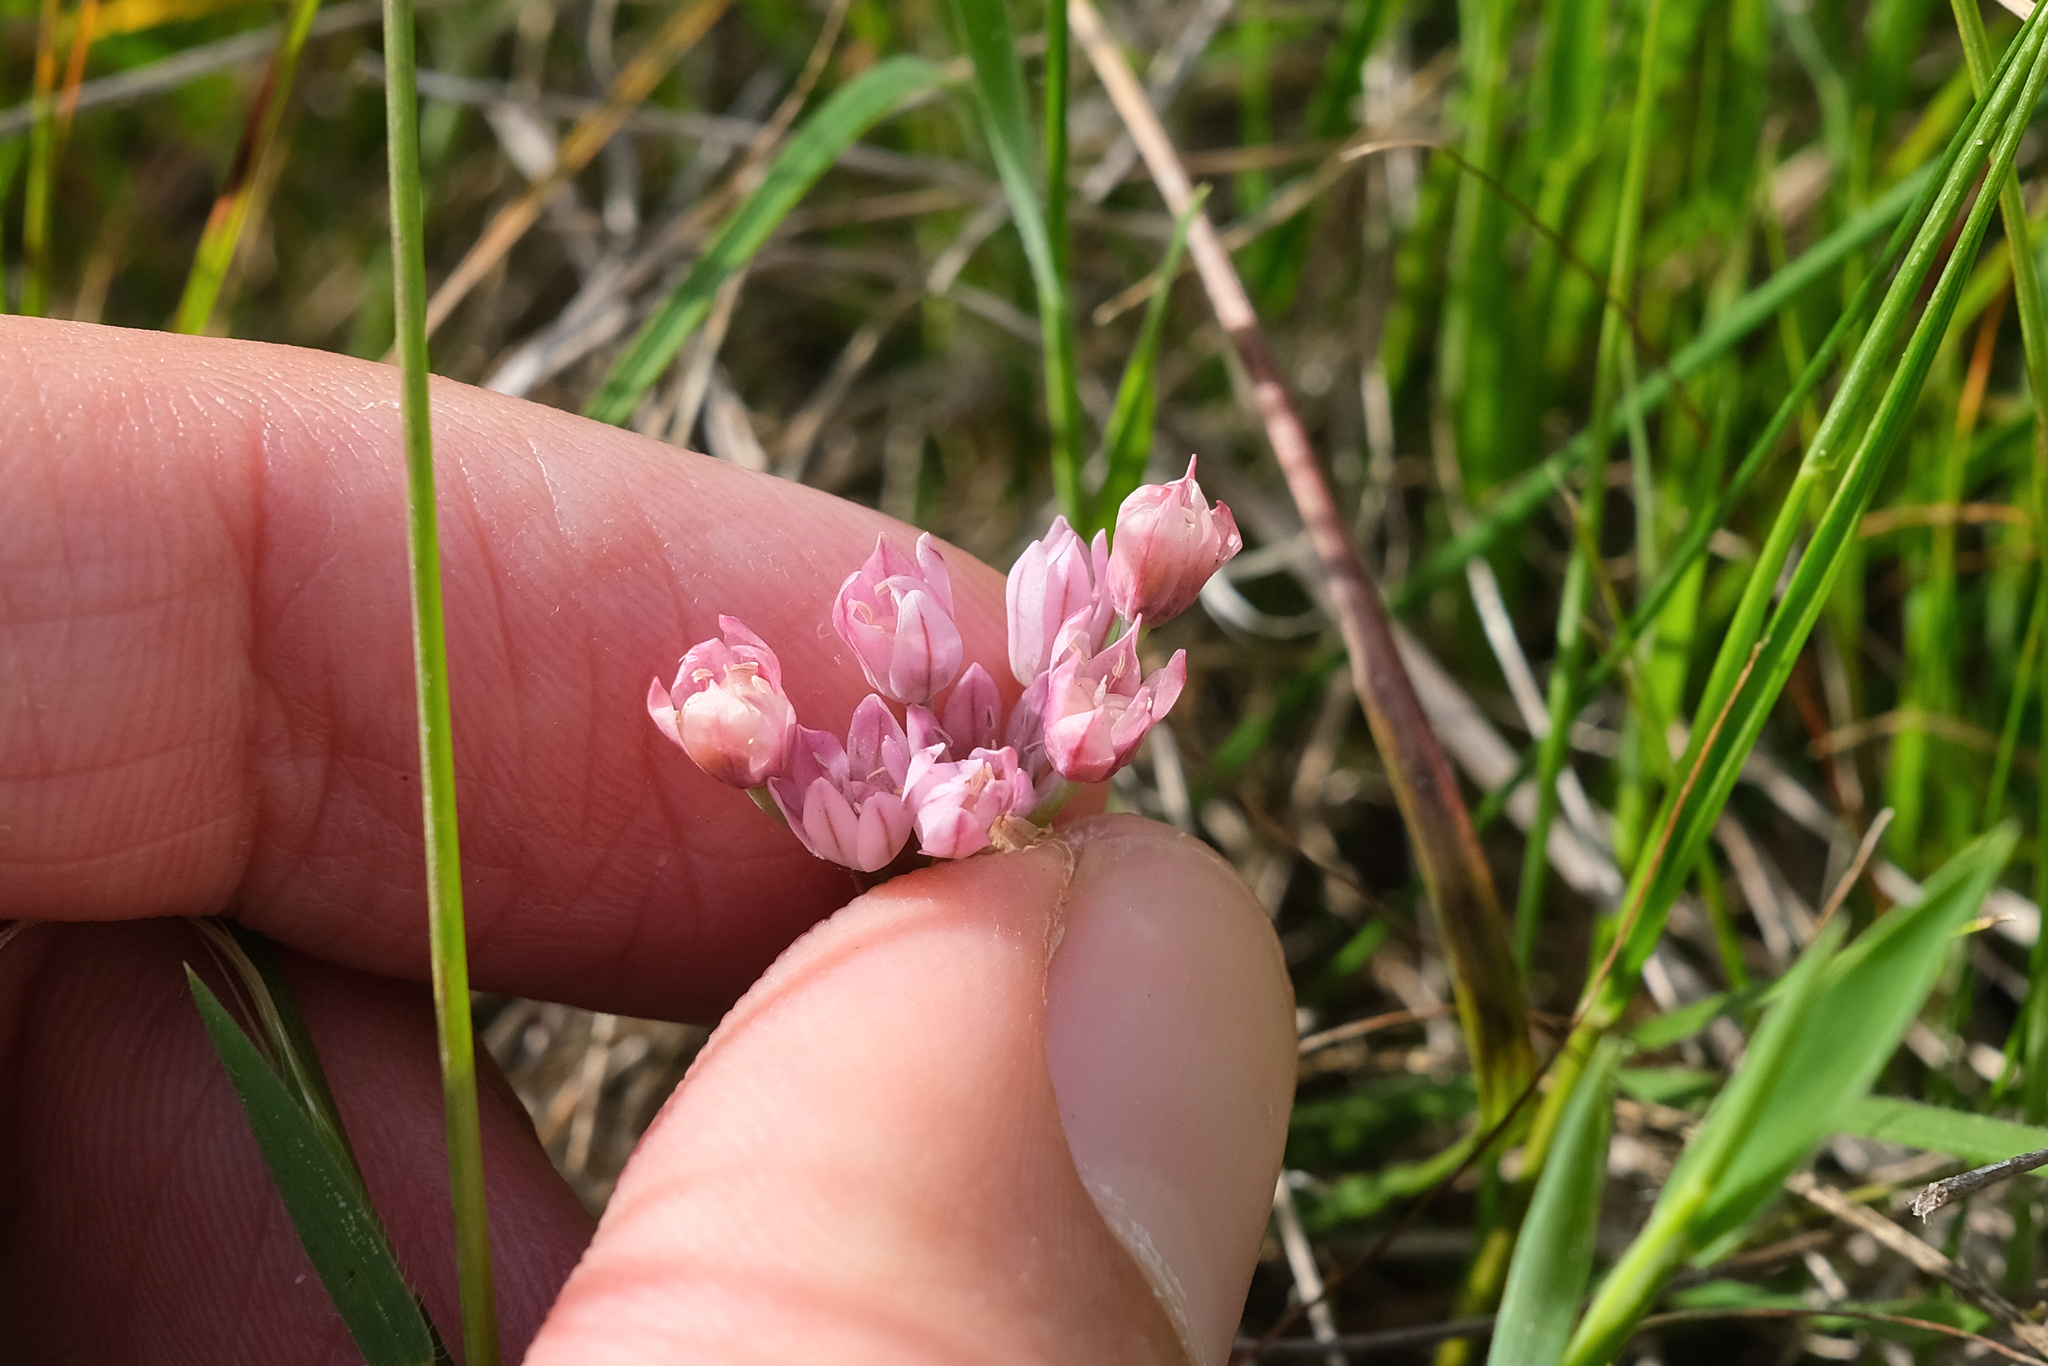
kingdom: Plantae
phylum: Tracheophyta
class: Liliopsida
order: Asparagales
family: Amaryllidaceae
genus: Allium
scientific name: Allium hickmanii
